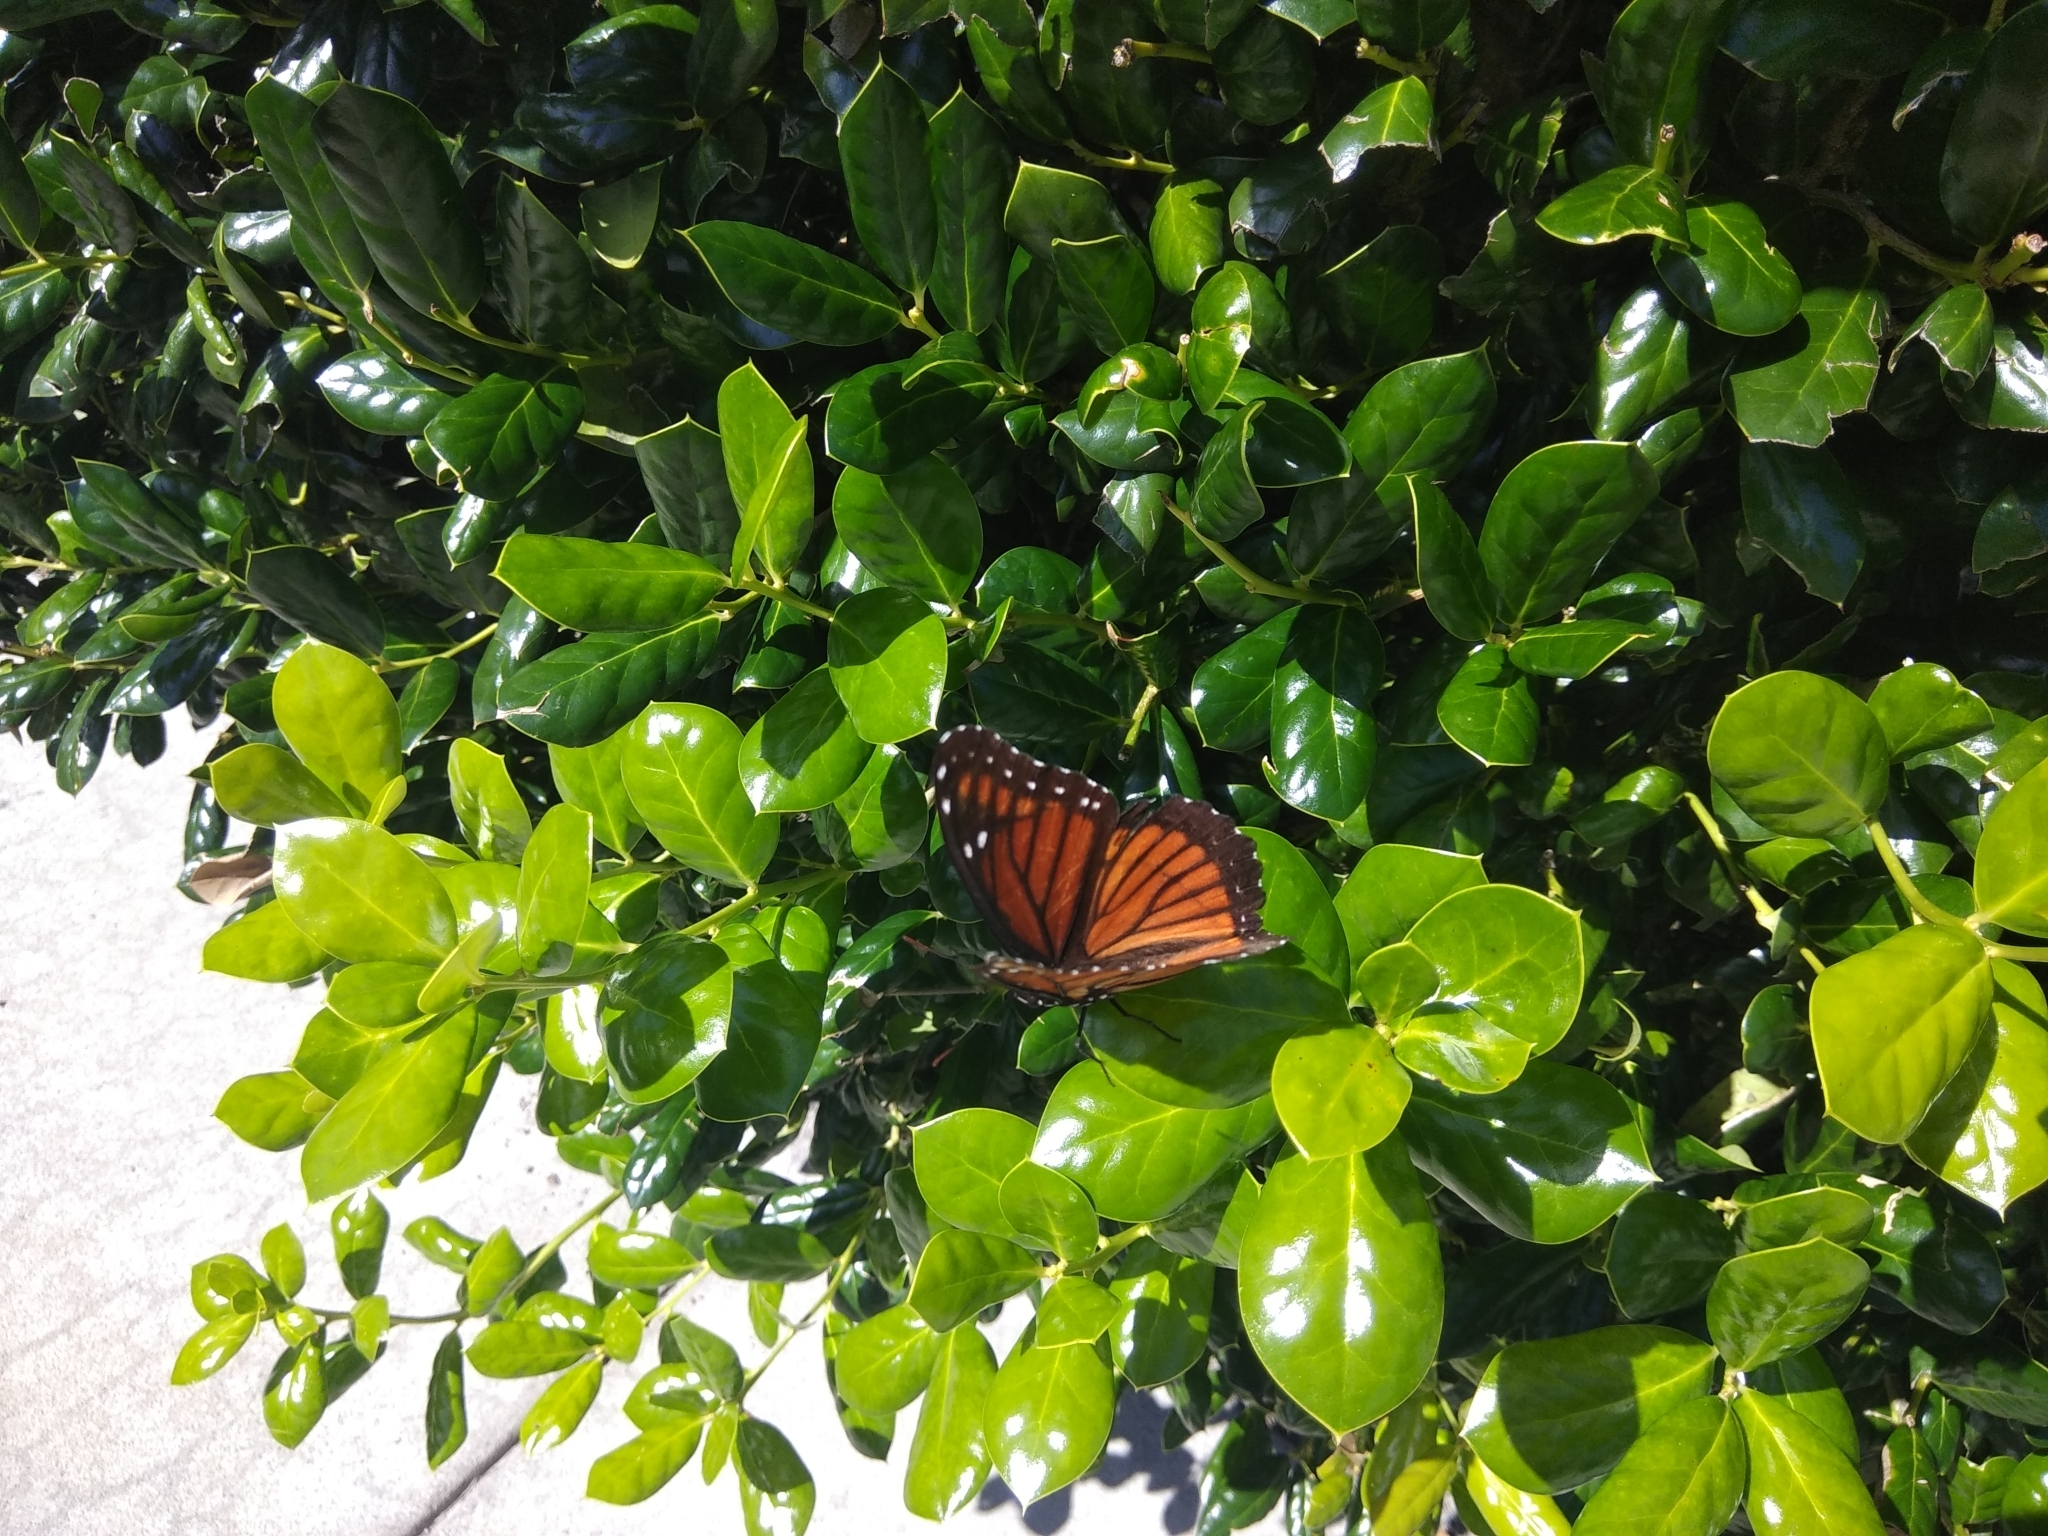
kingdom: Animalia
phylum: Arthropoda
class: Insecta
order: Lepidoptera
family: Nymphalidae
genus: Limenitis
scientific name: Limenitis archippus
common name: Viceroy
